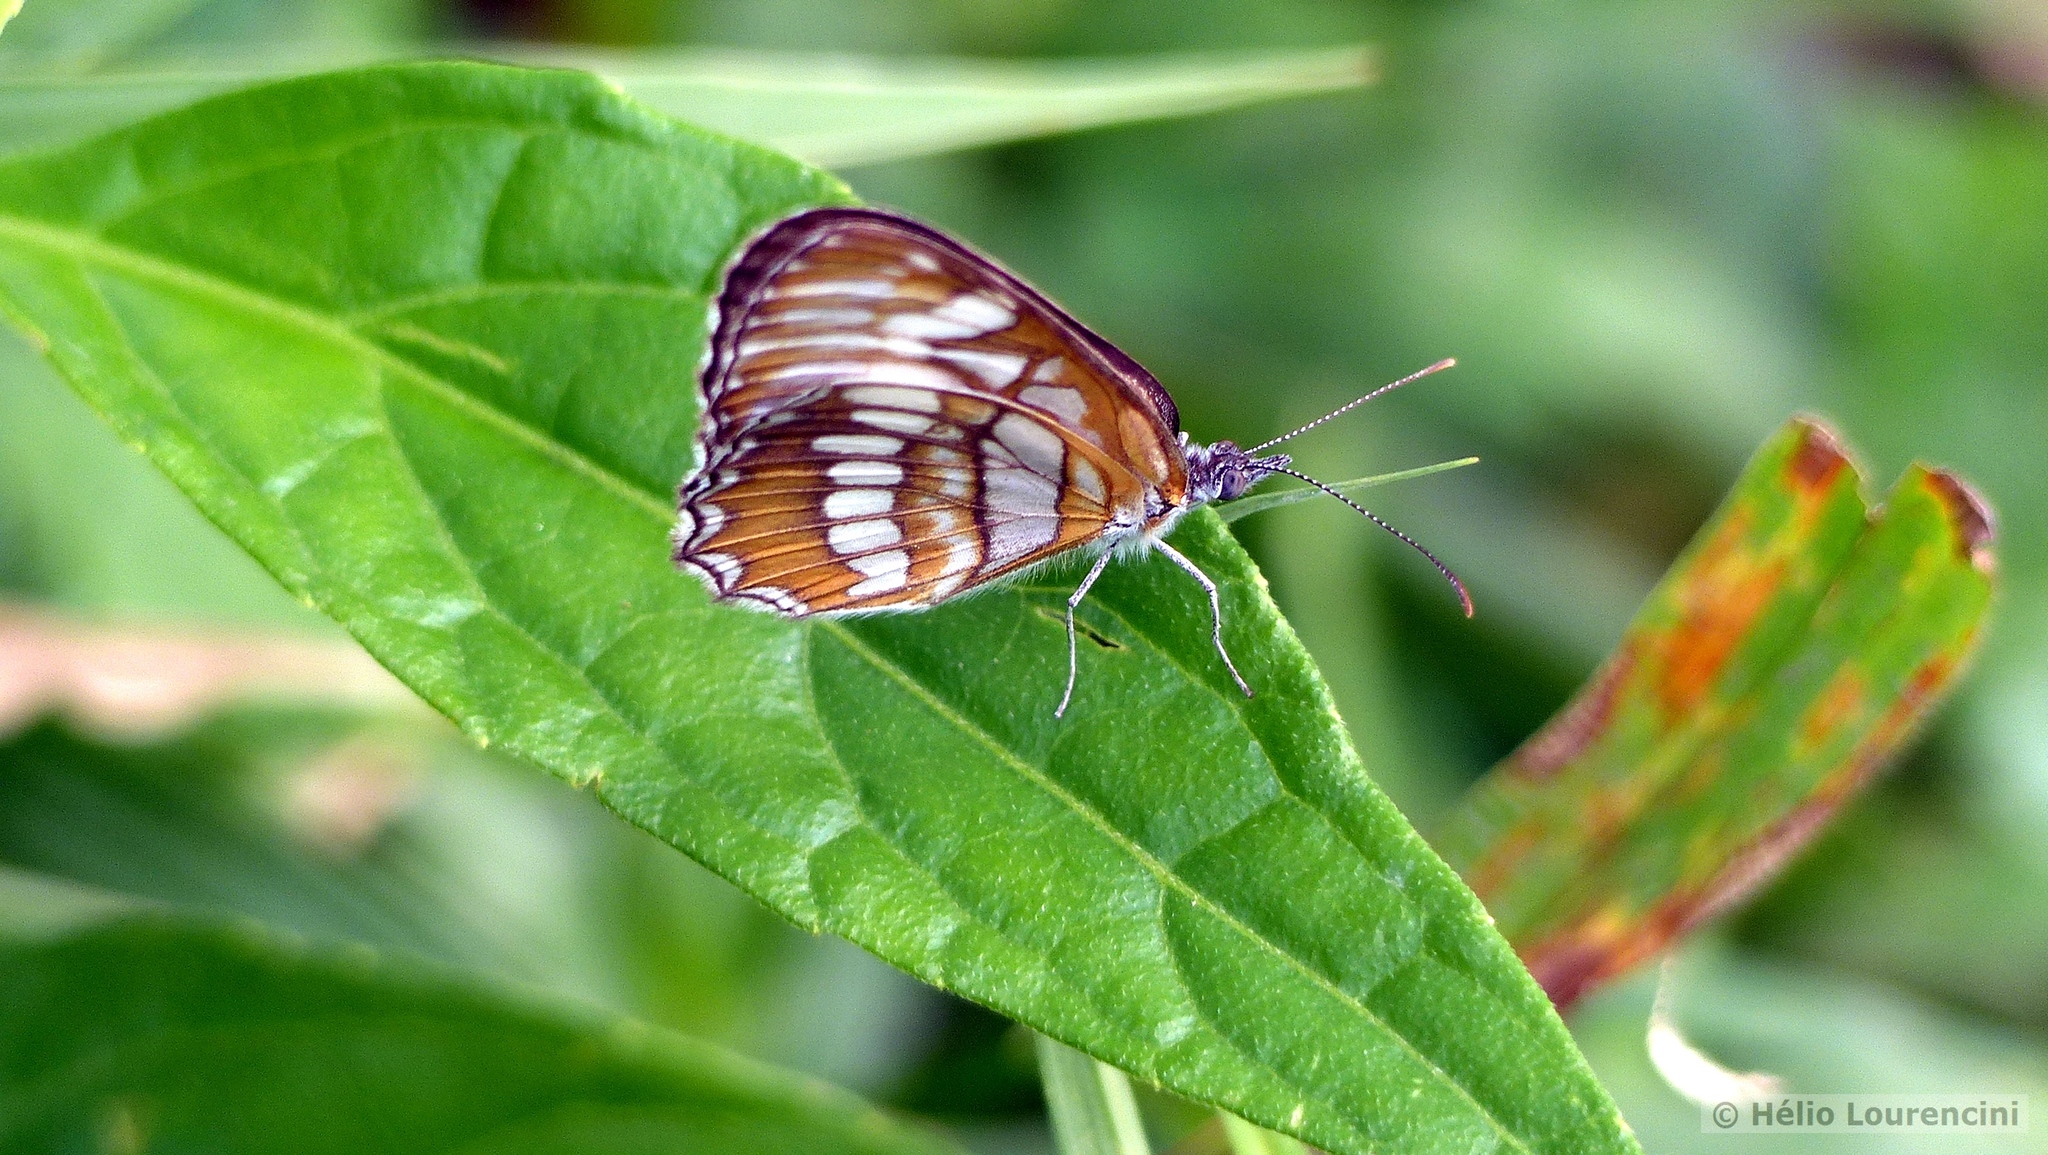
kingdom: Animalia
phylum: Arthropoda
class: Insecta
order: Lepidoptera
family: Nymphalidae
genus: Mestra
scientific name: Mestra hersilia
